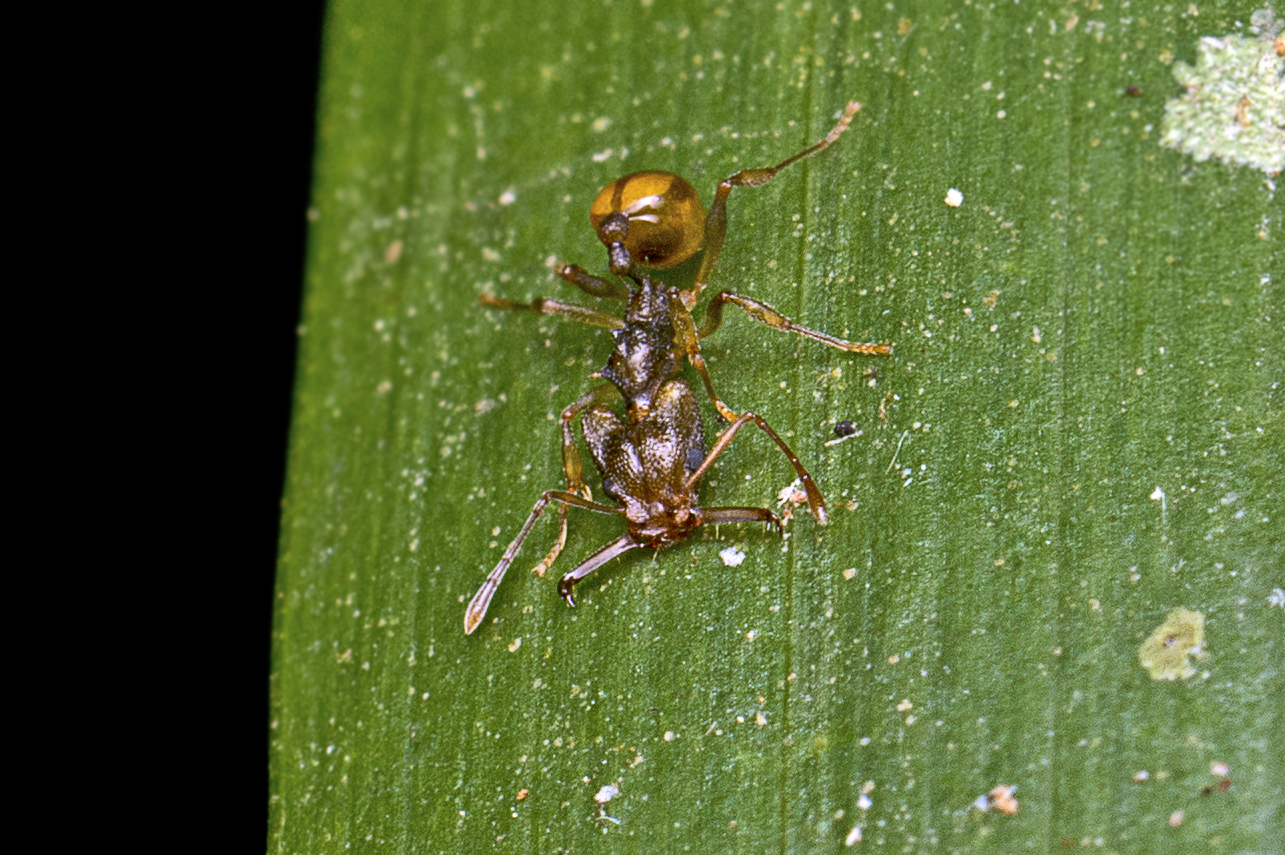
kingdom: Animalia
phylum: Arthropoda
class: Insecta
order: Hymenoptera
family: Formicidae
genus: Orectognathus
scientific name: Orectognathus versicolor
